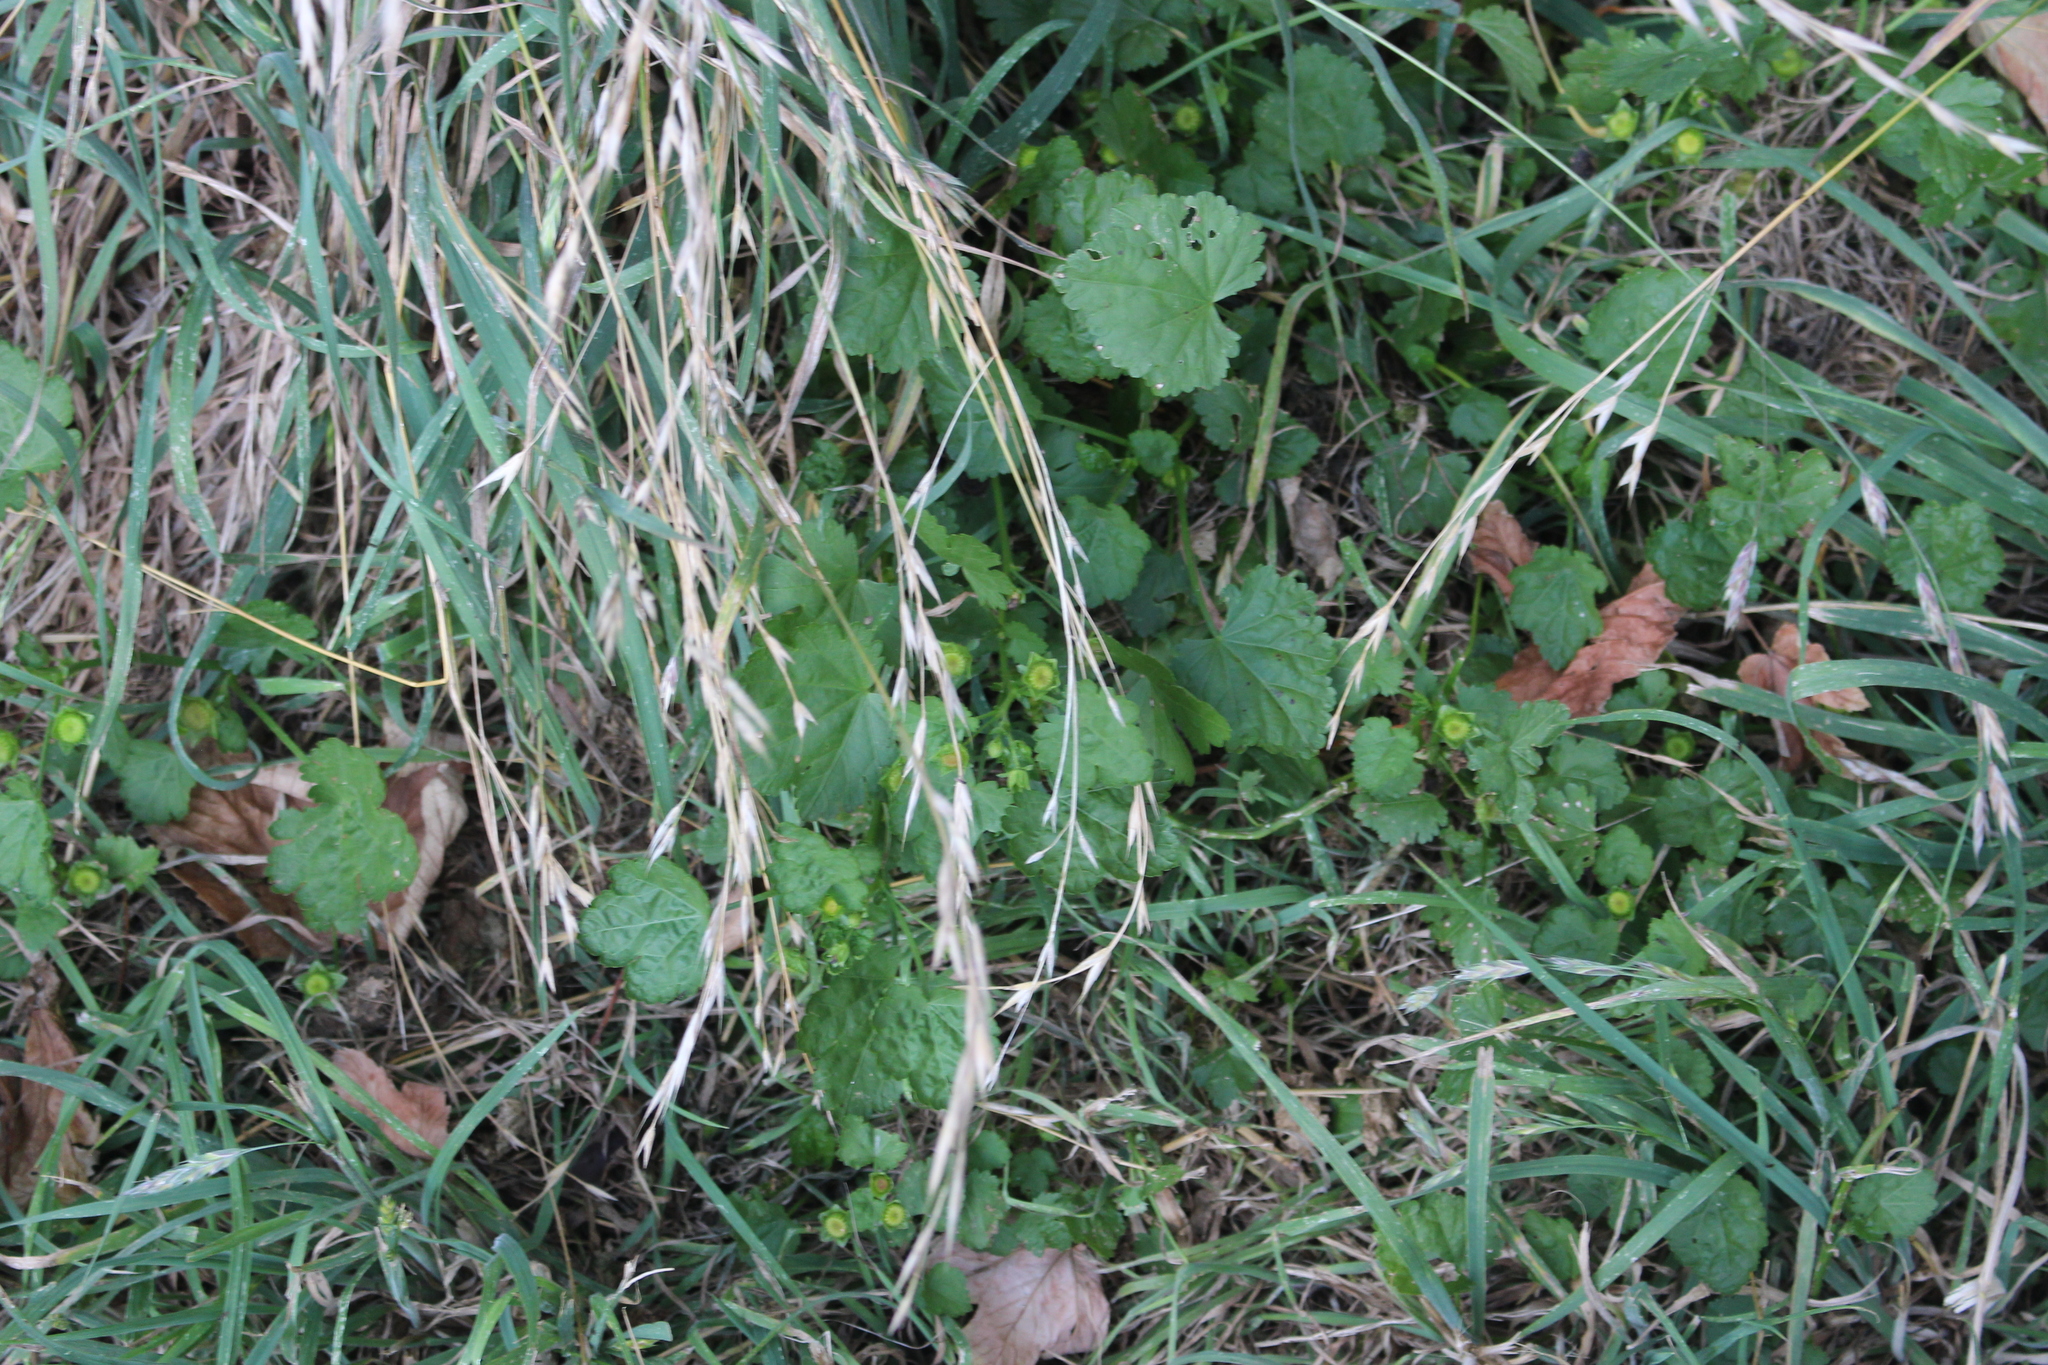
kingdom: Plantae
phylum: Tracheophyta
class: Liliopsida
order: Poales
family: Juncaceae
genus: Juncus
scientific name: Juncus articulatus
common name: Jointed rush
